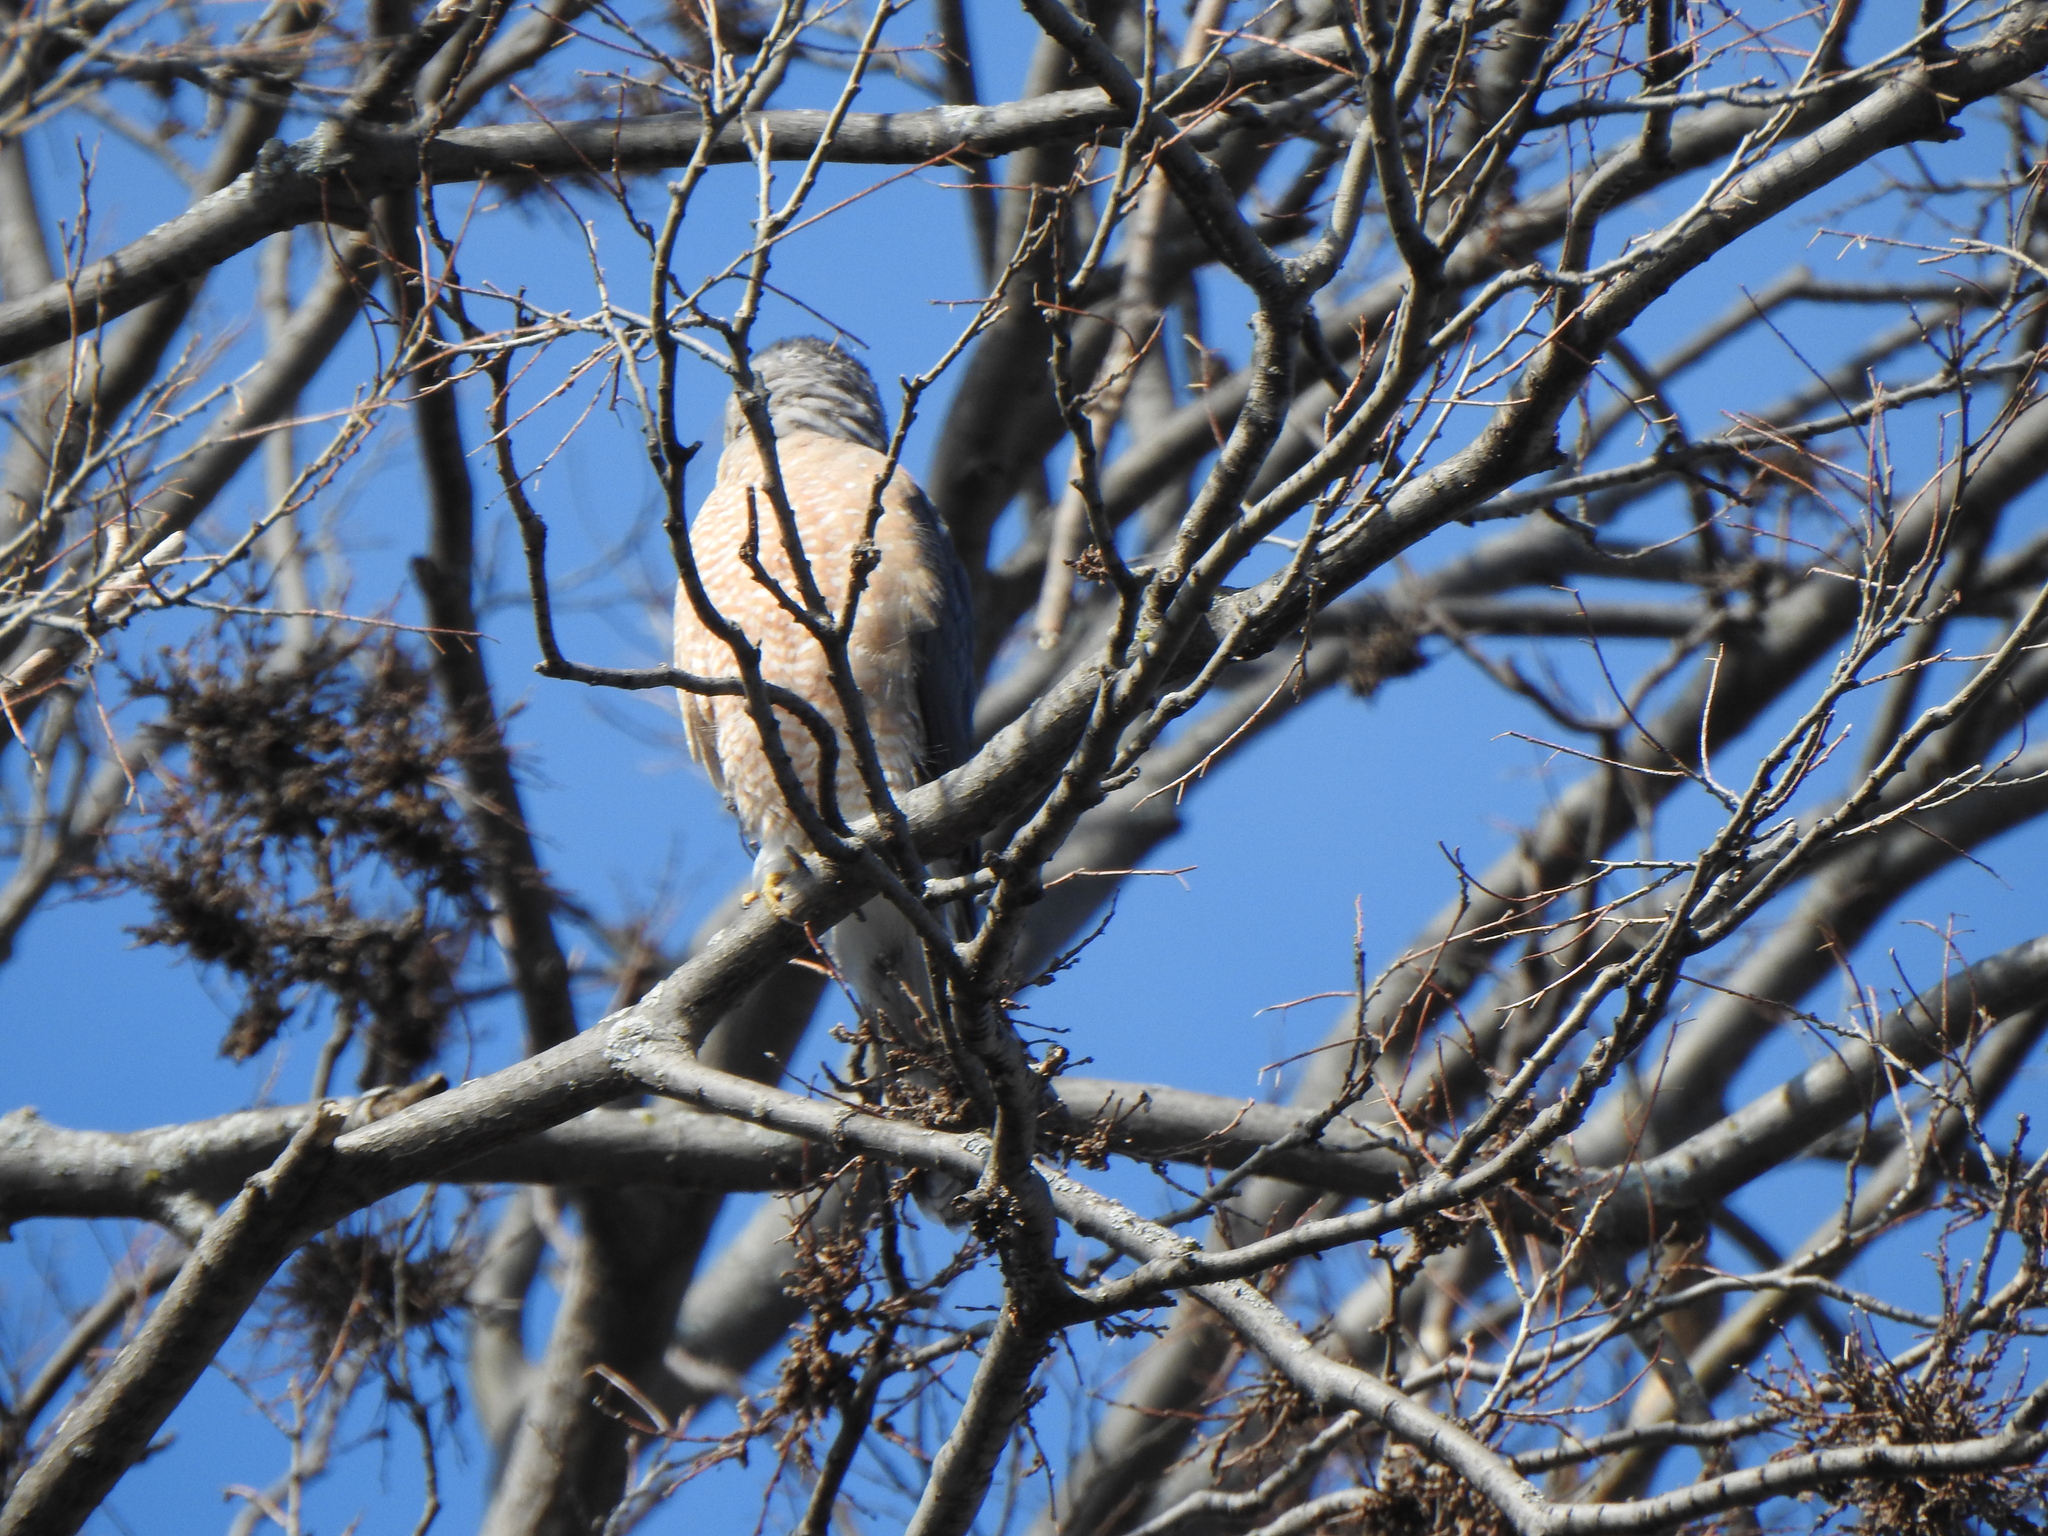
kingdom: Animalia
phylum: Chordata
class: Aves
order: Accipitriformes
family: Accipitridae
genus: Accipiter
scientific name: Accipiter cooperii
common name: Cooper's hawk
